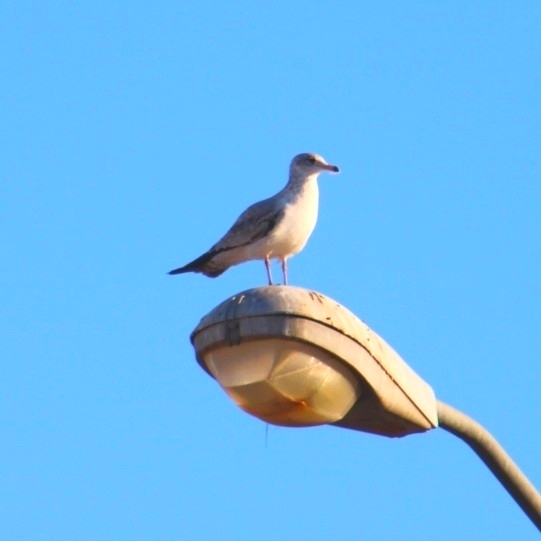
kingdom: Animalia
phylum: Chordata
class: Aves
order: Charadriiformes
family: Laridae
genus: Larus
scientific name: Larus californicus
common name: California gull
